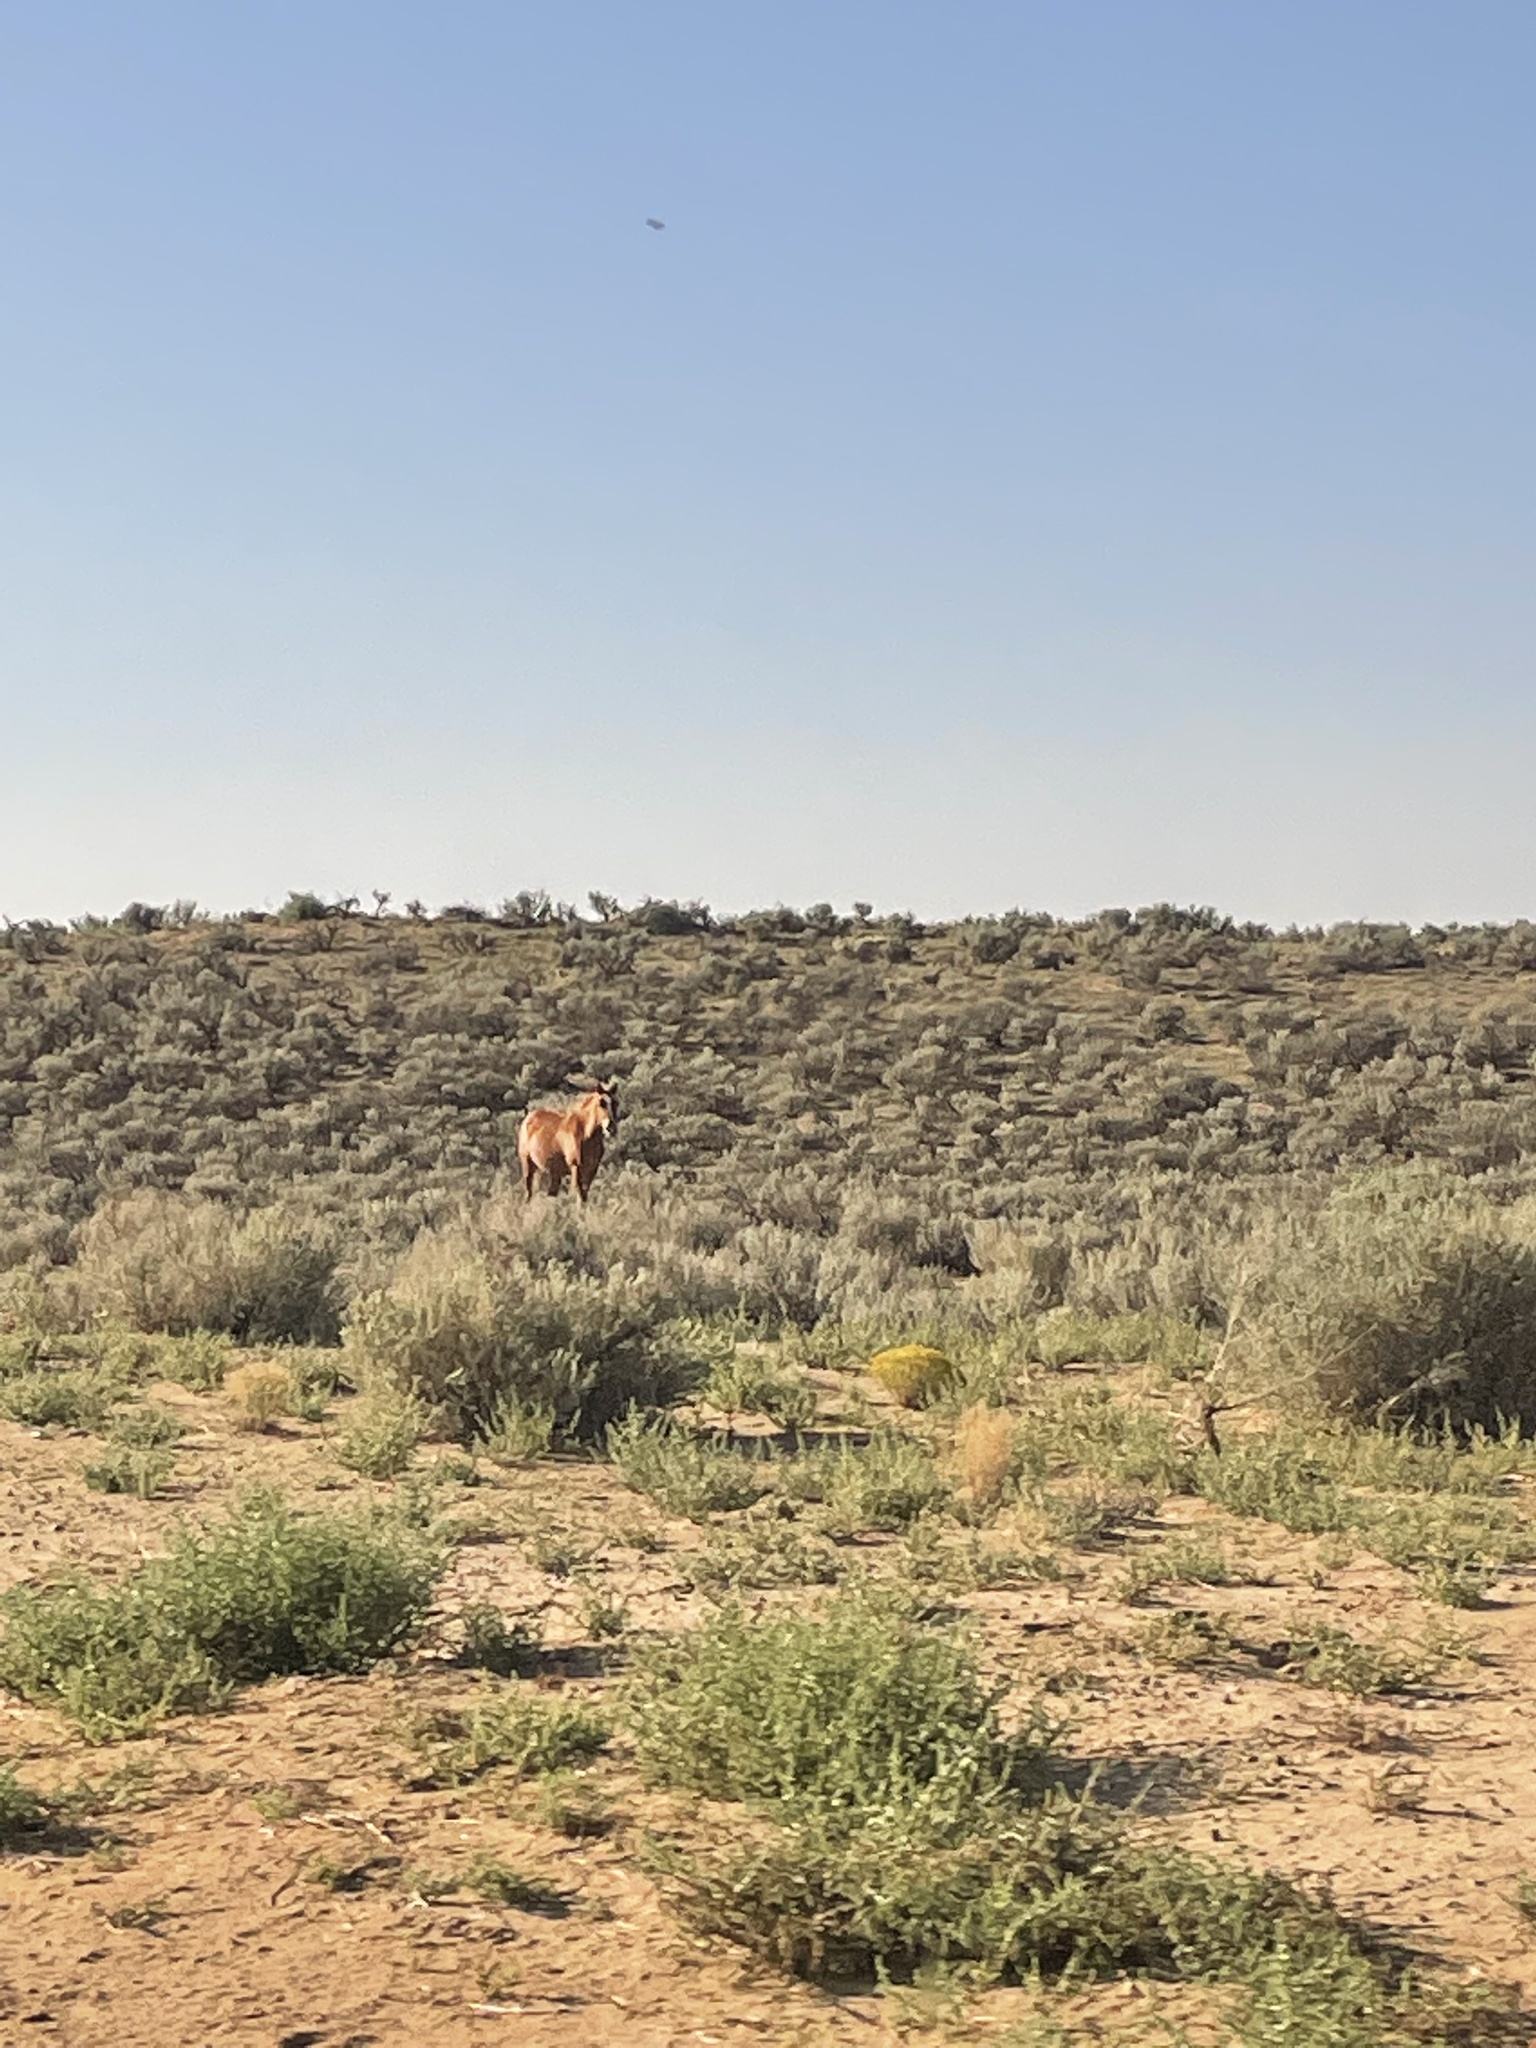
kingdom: Animalia
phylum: Chordata
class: Mammalia
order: Perissodactyla
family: Equidae
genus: Equus
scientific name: Equus caballus
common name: Horse
